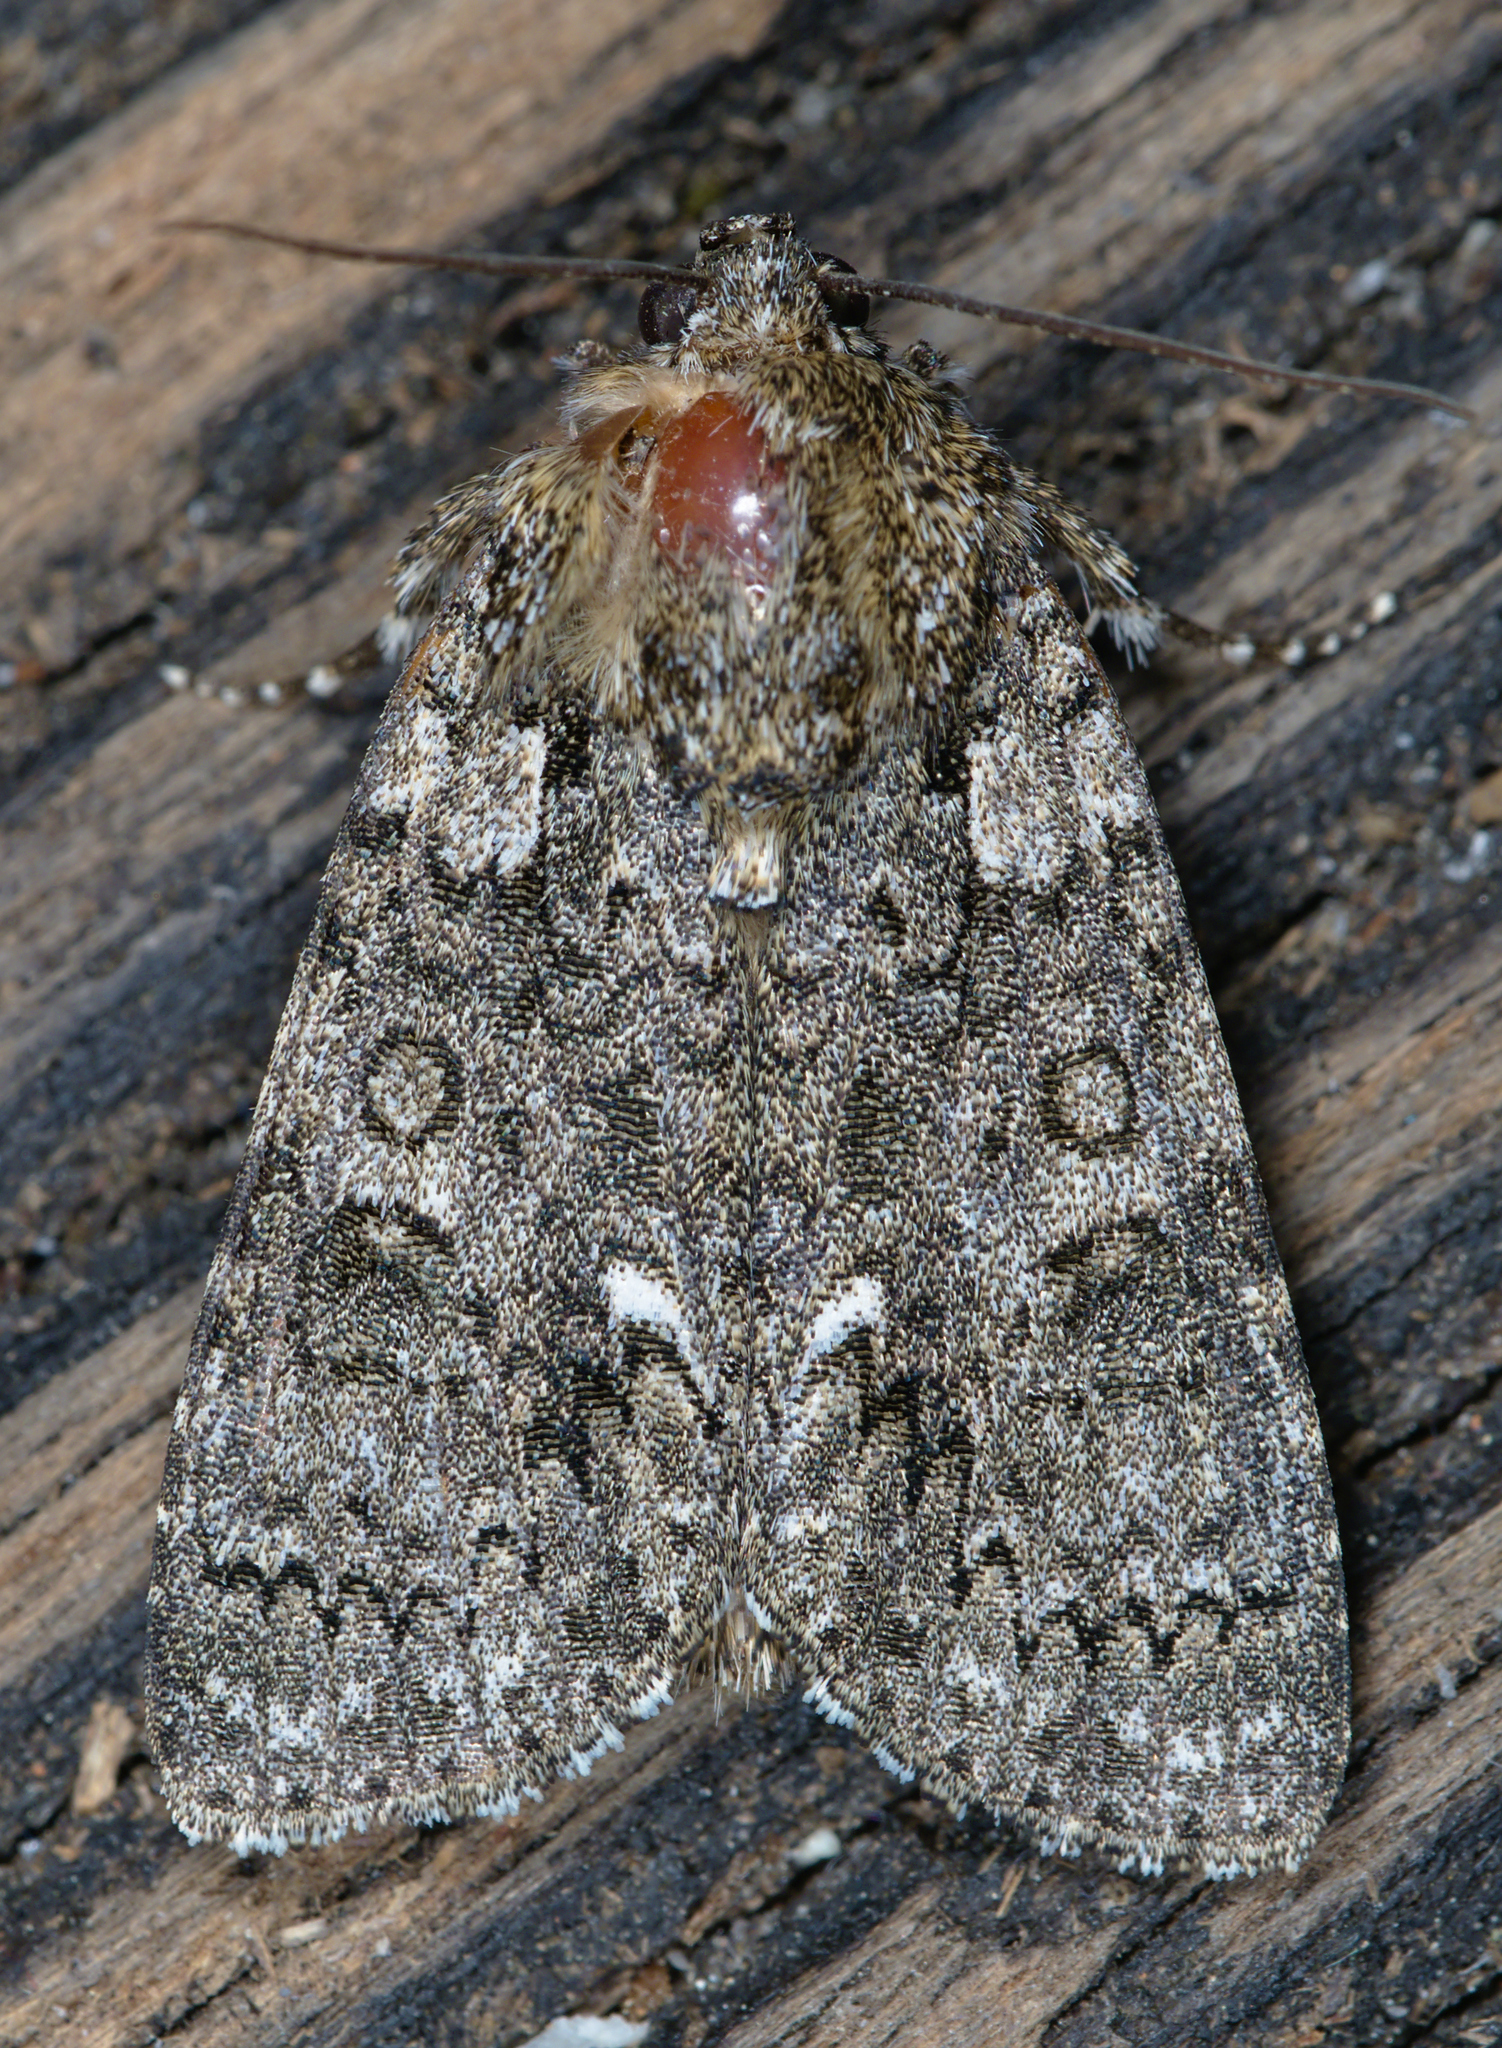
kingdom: Animalia
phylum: Arthropoda
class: Insecta
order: Lepidoptera
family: Noctuidae
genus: Acronicta
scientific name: Acronicta rumicis
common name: Knot grass
